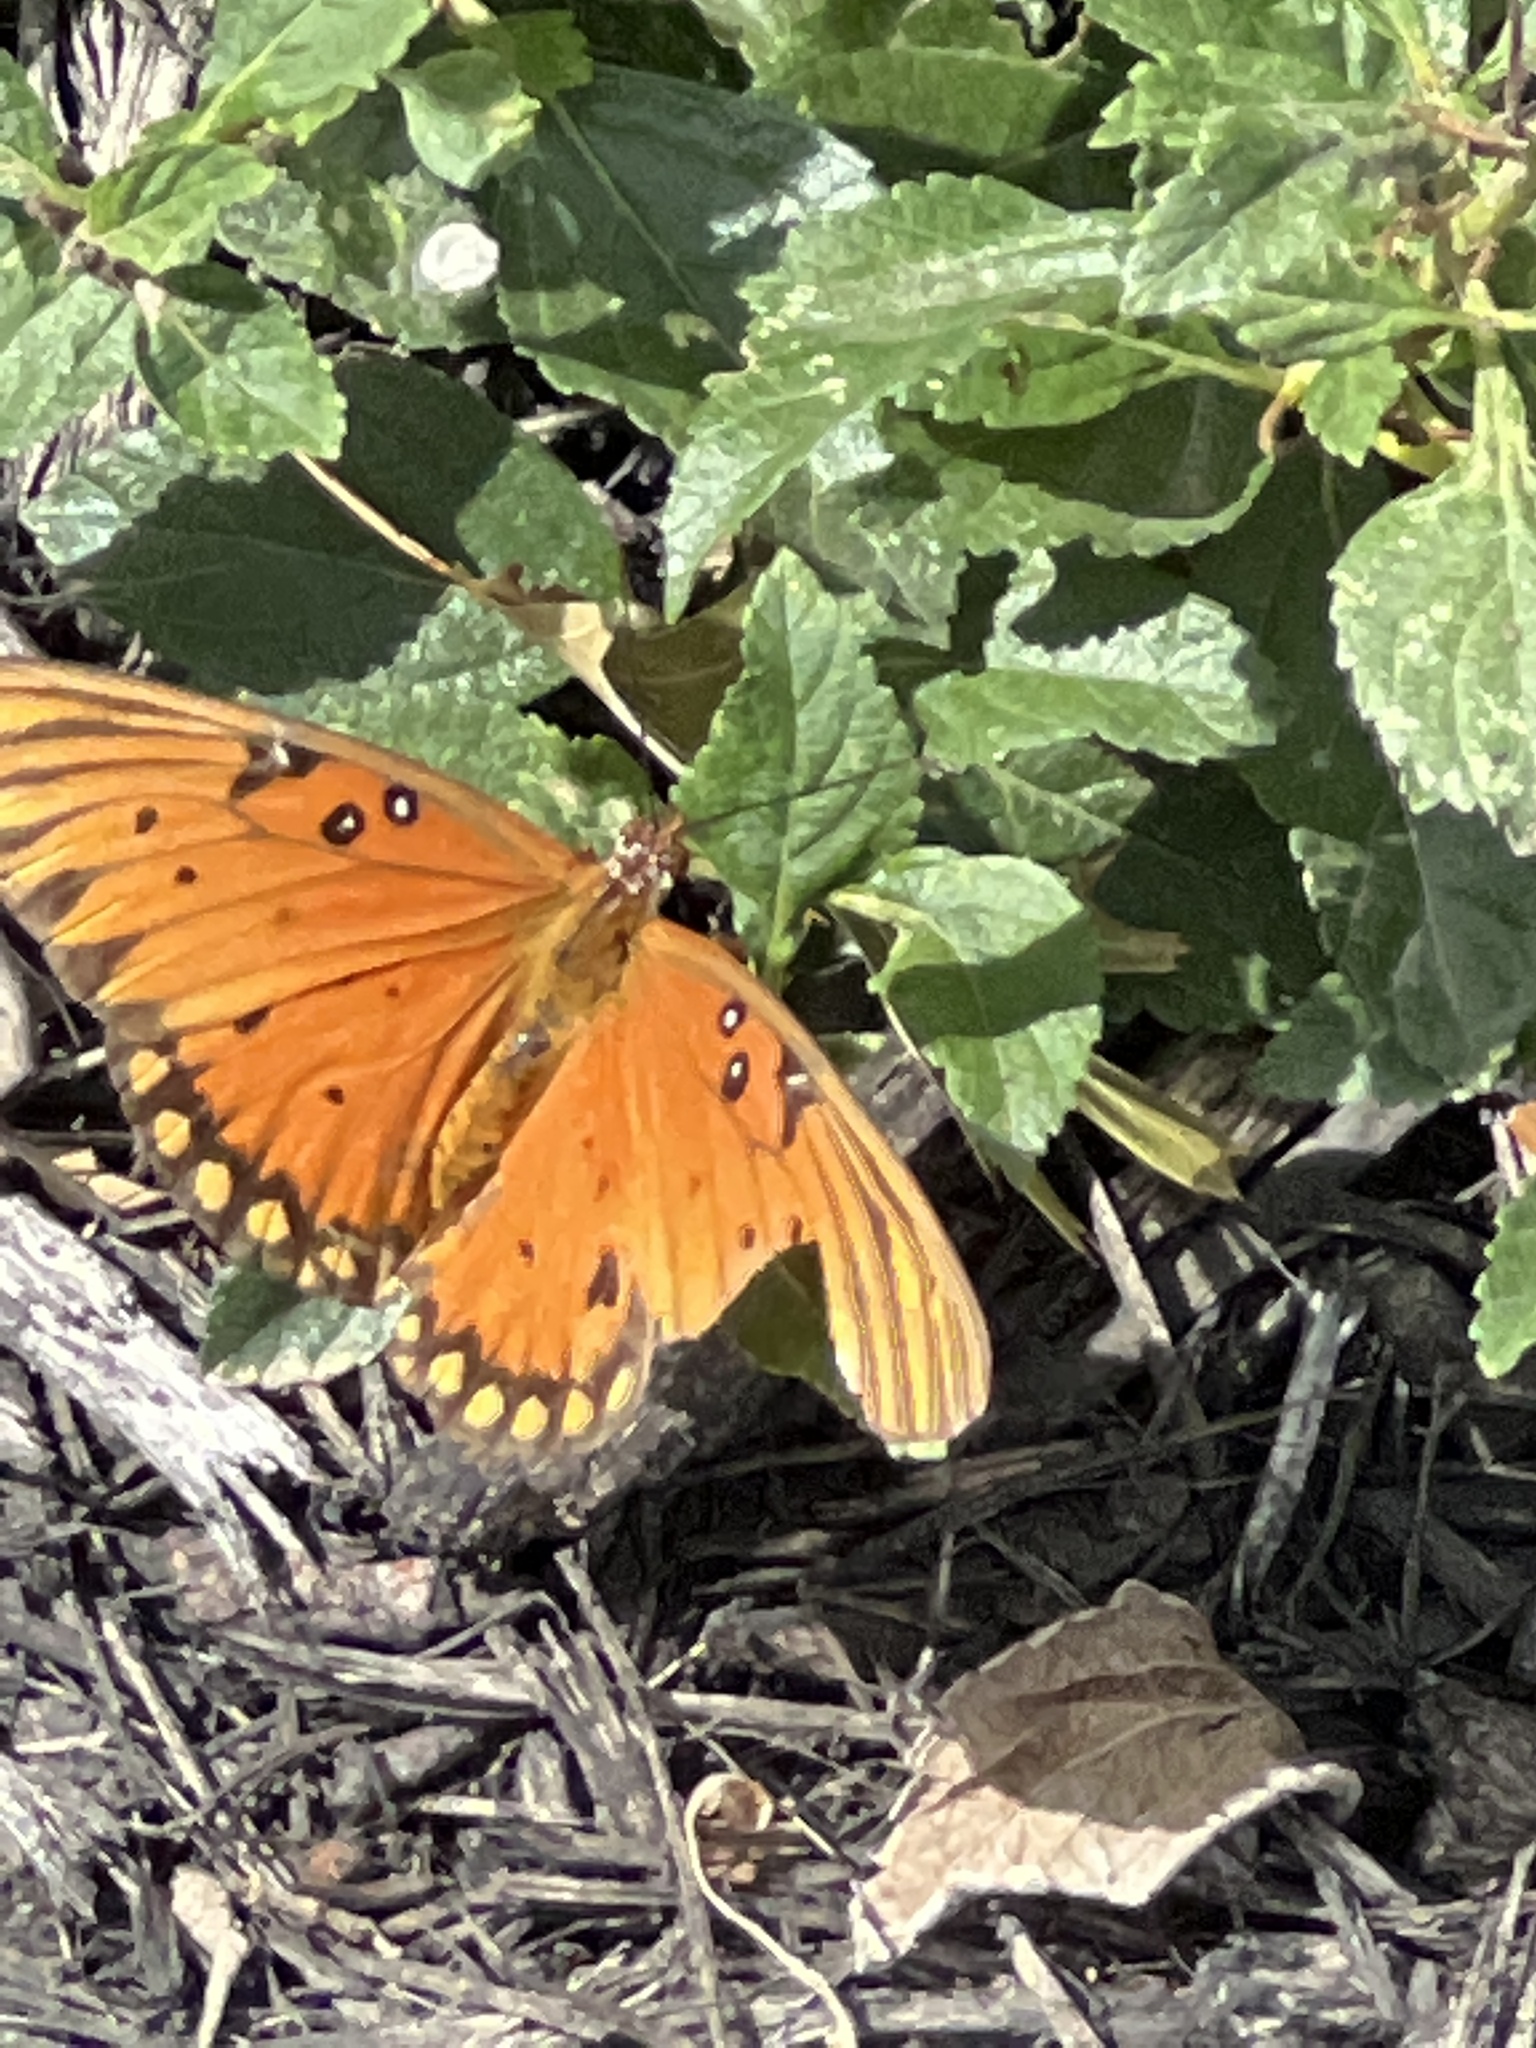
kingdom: Animalia
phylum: Arthropoda
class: Insecta
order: Lepidoptera
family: Nymphalidae
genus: Dione
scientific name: Dione vanillae
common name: Gulf fritillary
